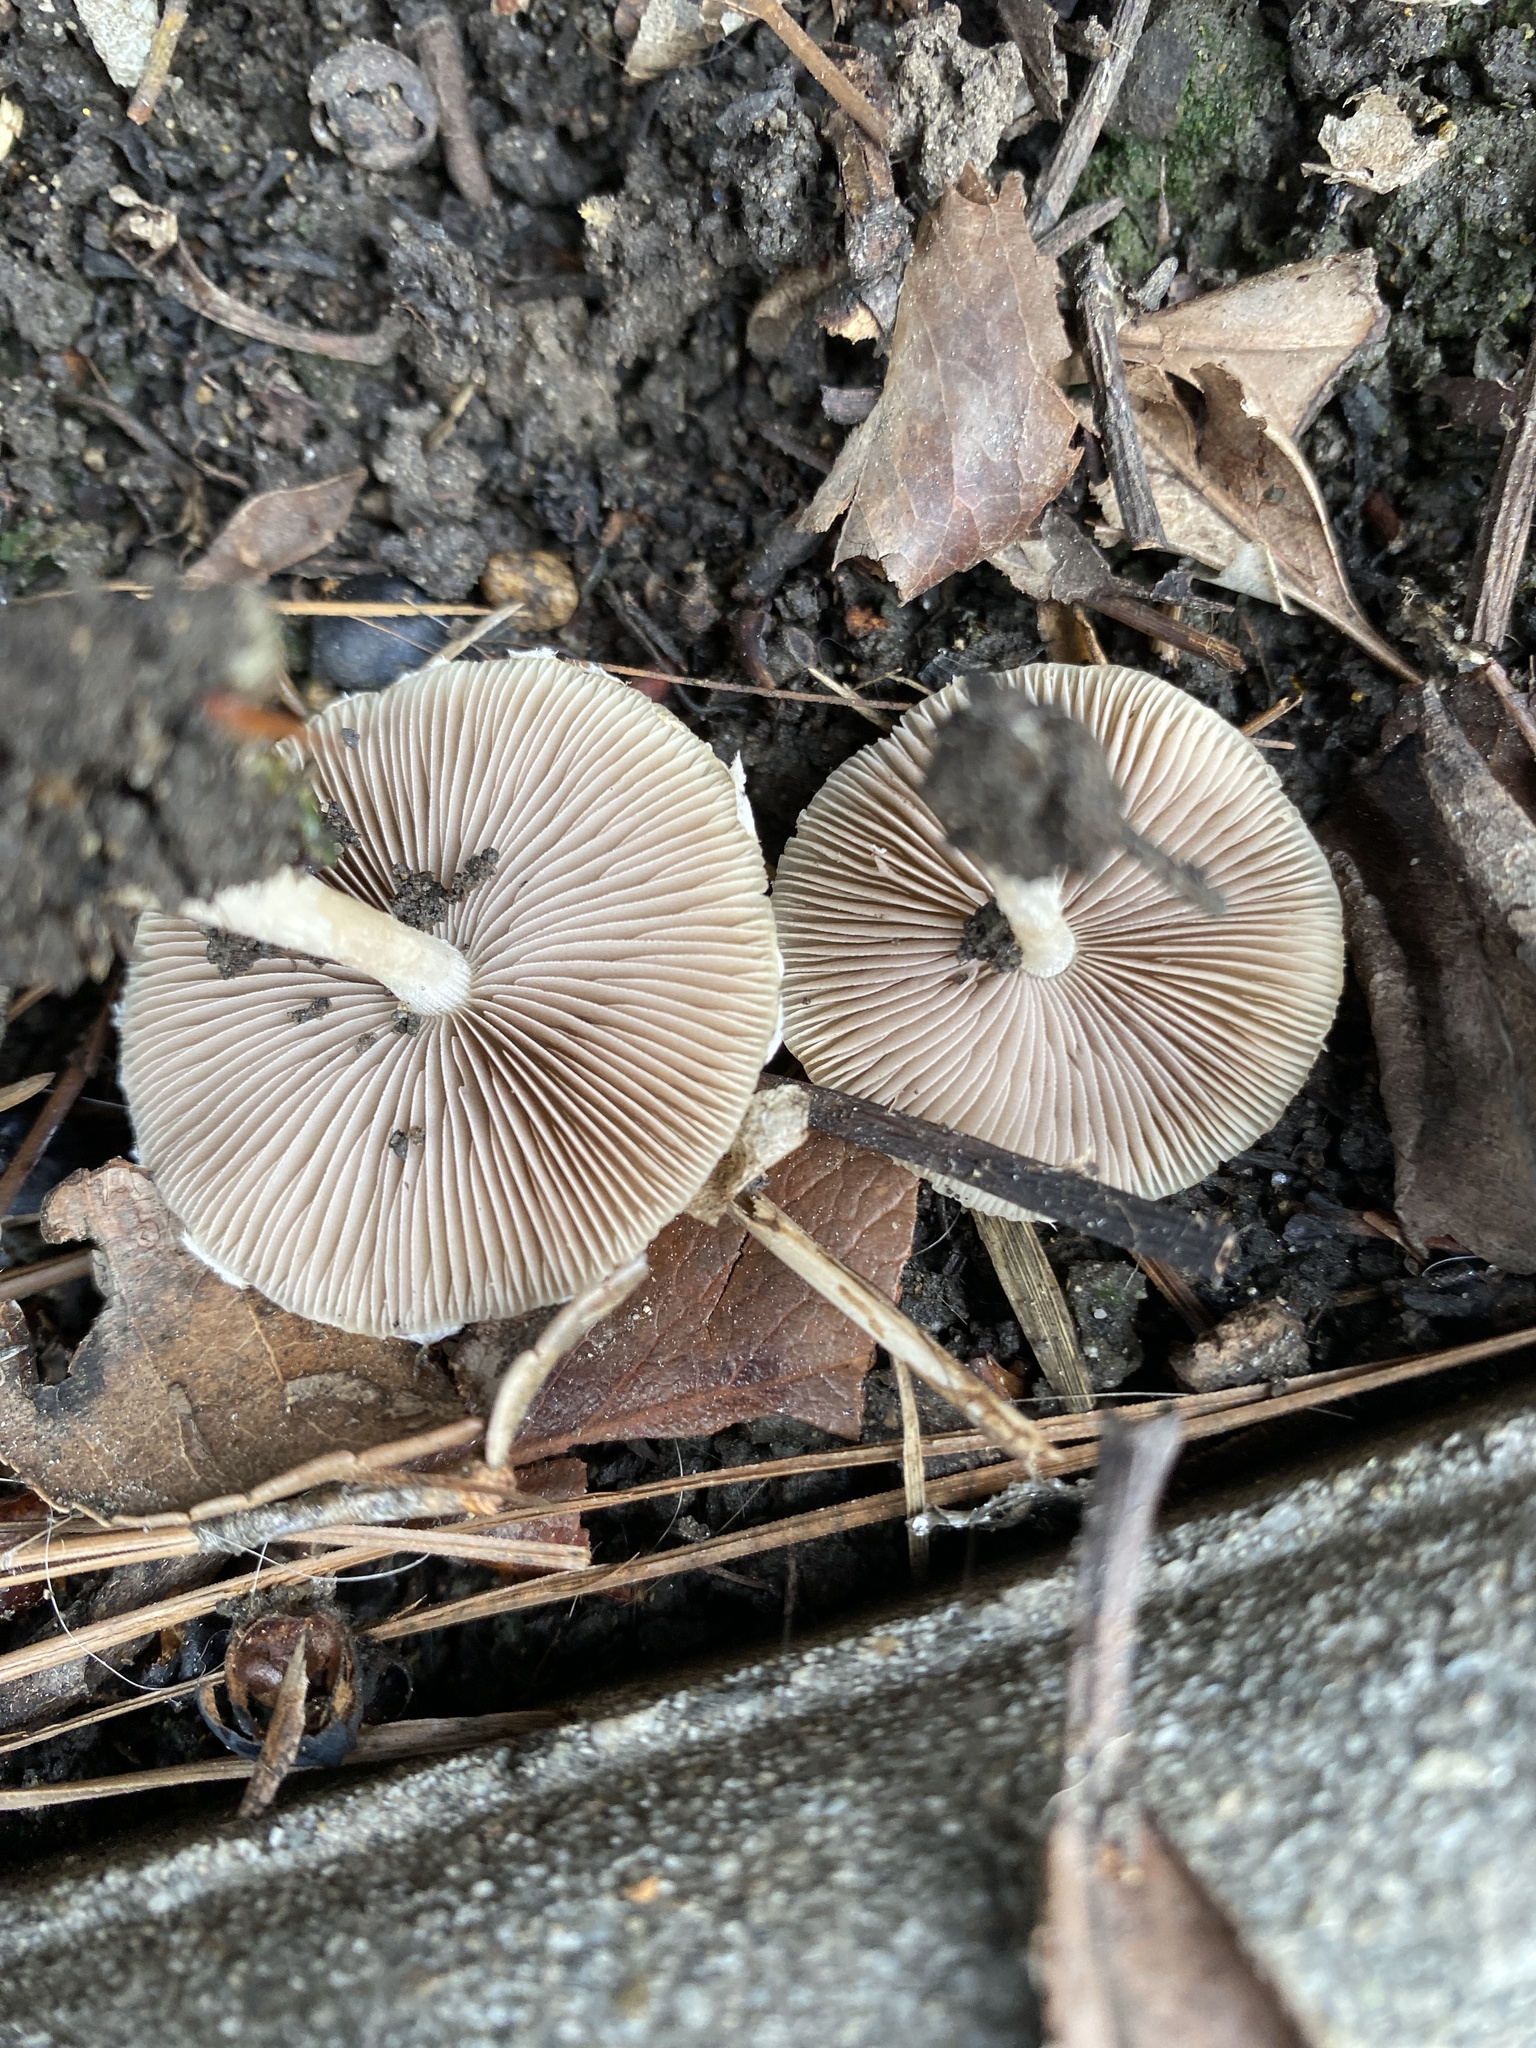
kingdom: Fungi
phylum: Basidiomycota
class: Agaricomycetes
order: Agaricales
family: Psathyrellaceae
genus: Candolleomyces
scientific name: Candolleomyces candolleanus
